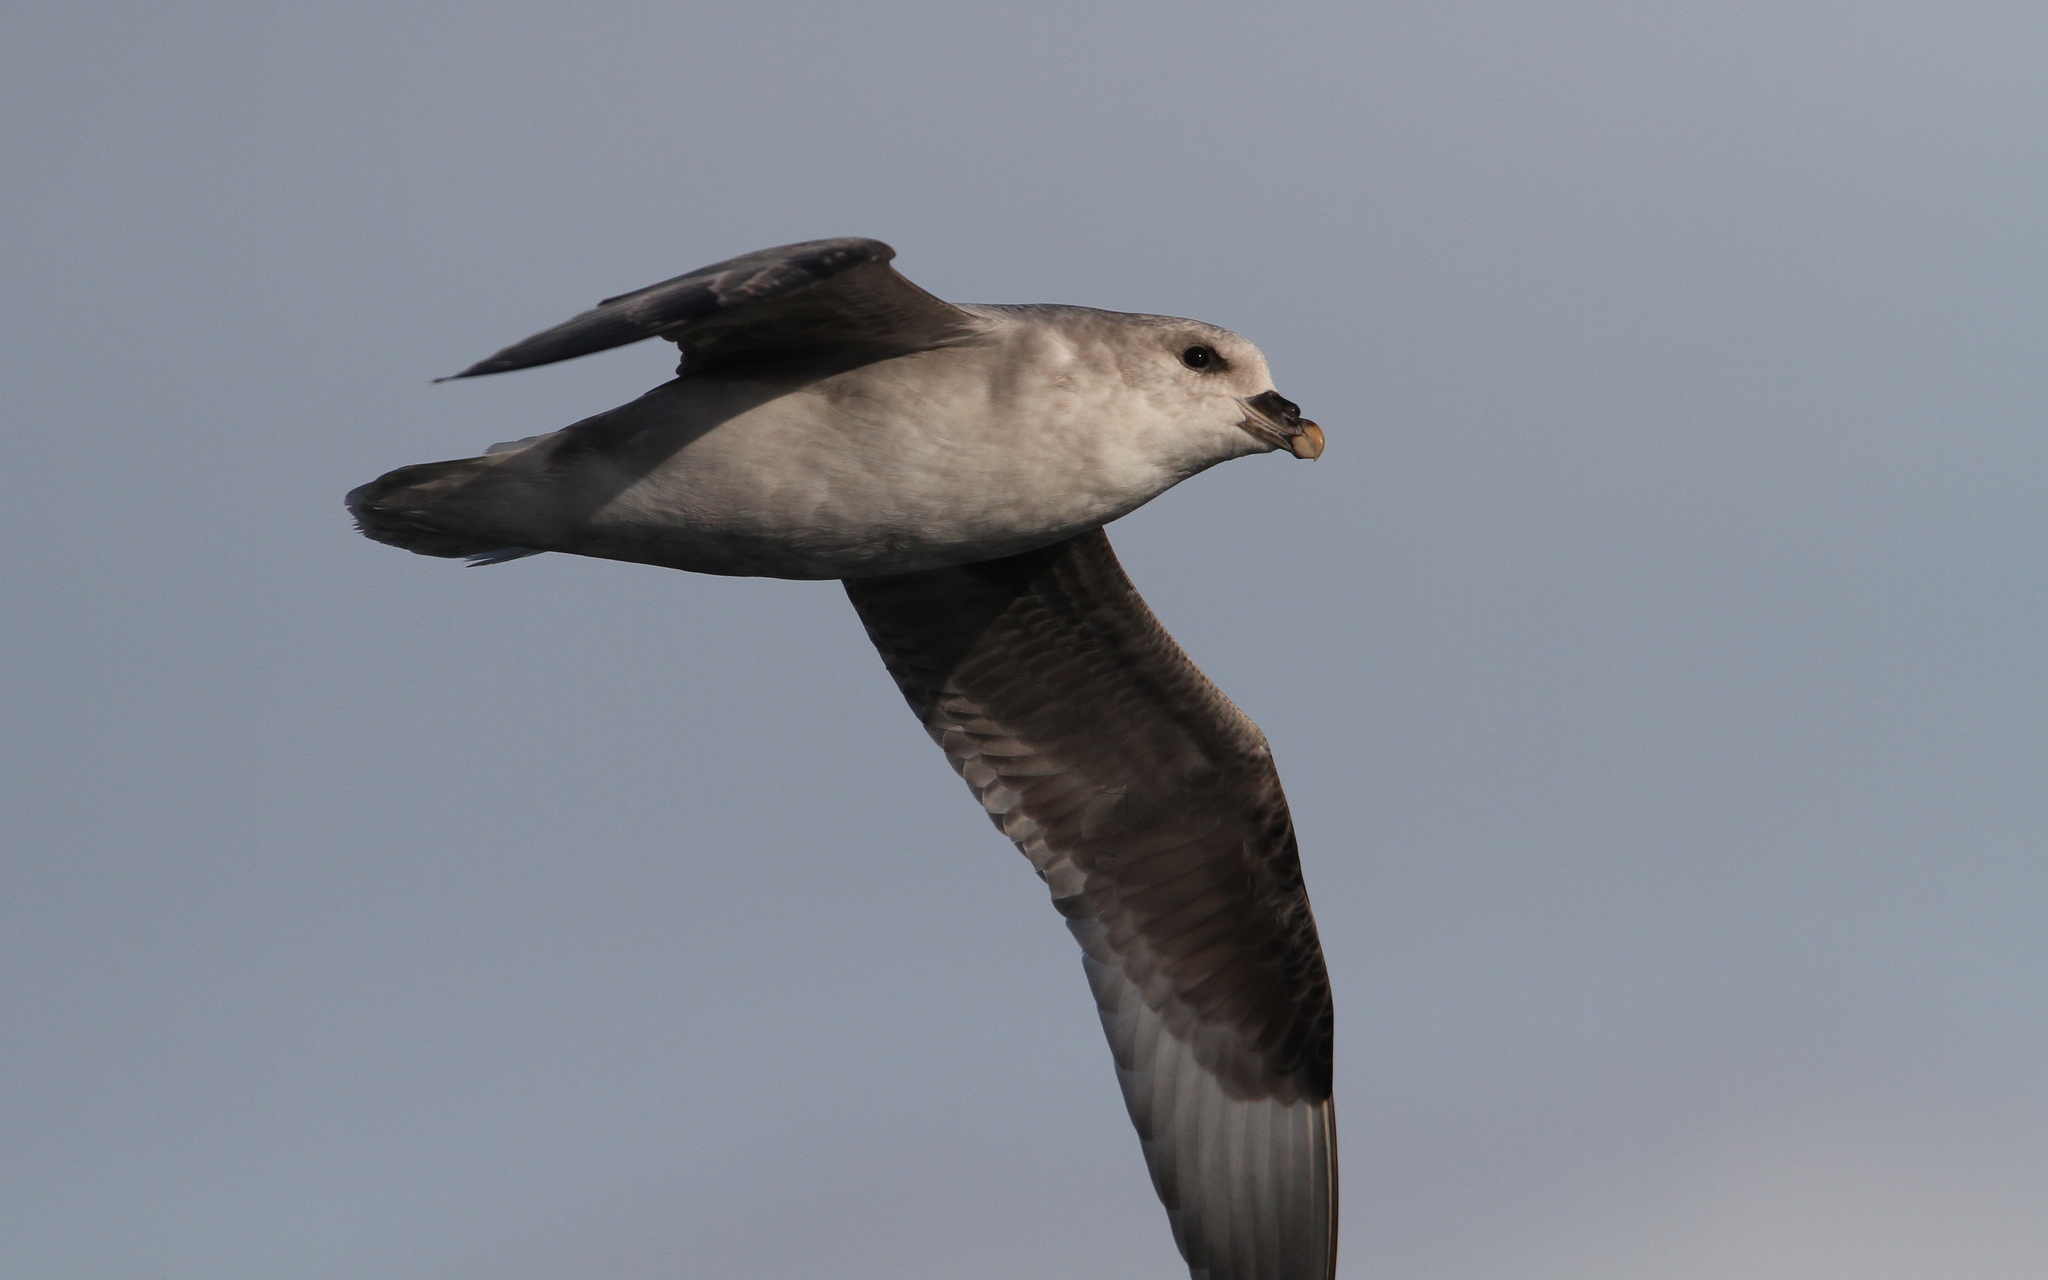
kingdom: Animalia
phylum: Chordata
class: Aves
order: Procellariiformes
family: Procellariidae
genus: Fulmarus
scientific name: Fulmarus glacialis
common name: Northern fulmar
